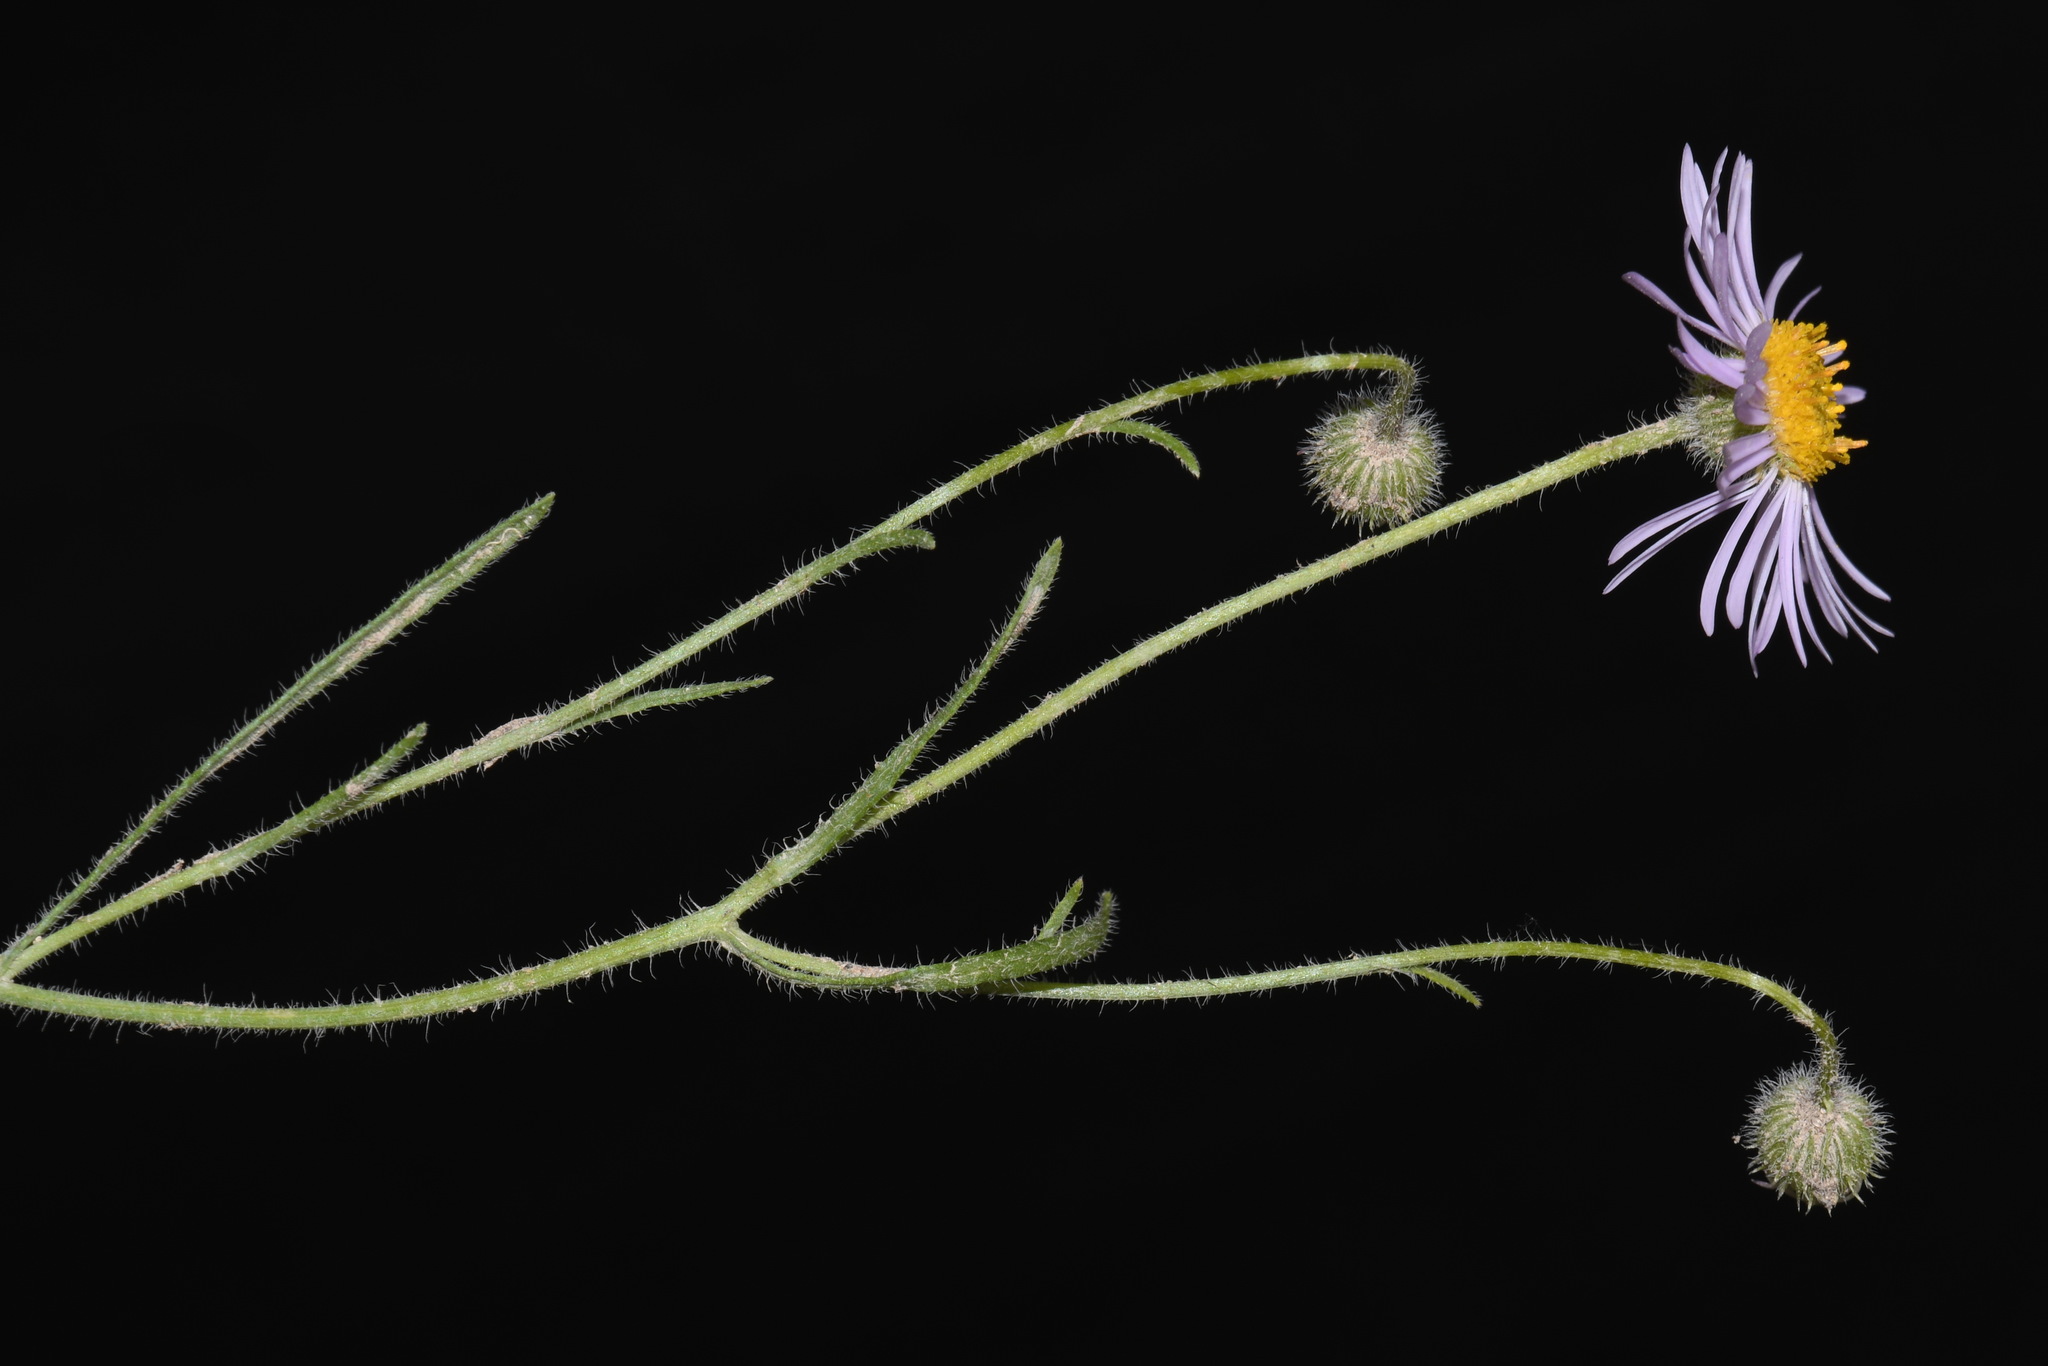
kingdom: Plantae
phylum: Tracheophyta
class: Magnoliopsida
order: Asterales
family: Asteraceae
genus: Erigeron
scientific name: Erigeron pumilus
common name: Shaggy fleabane
